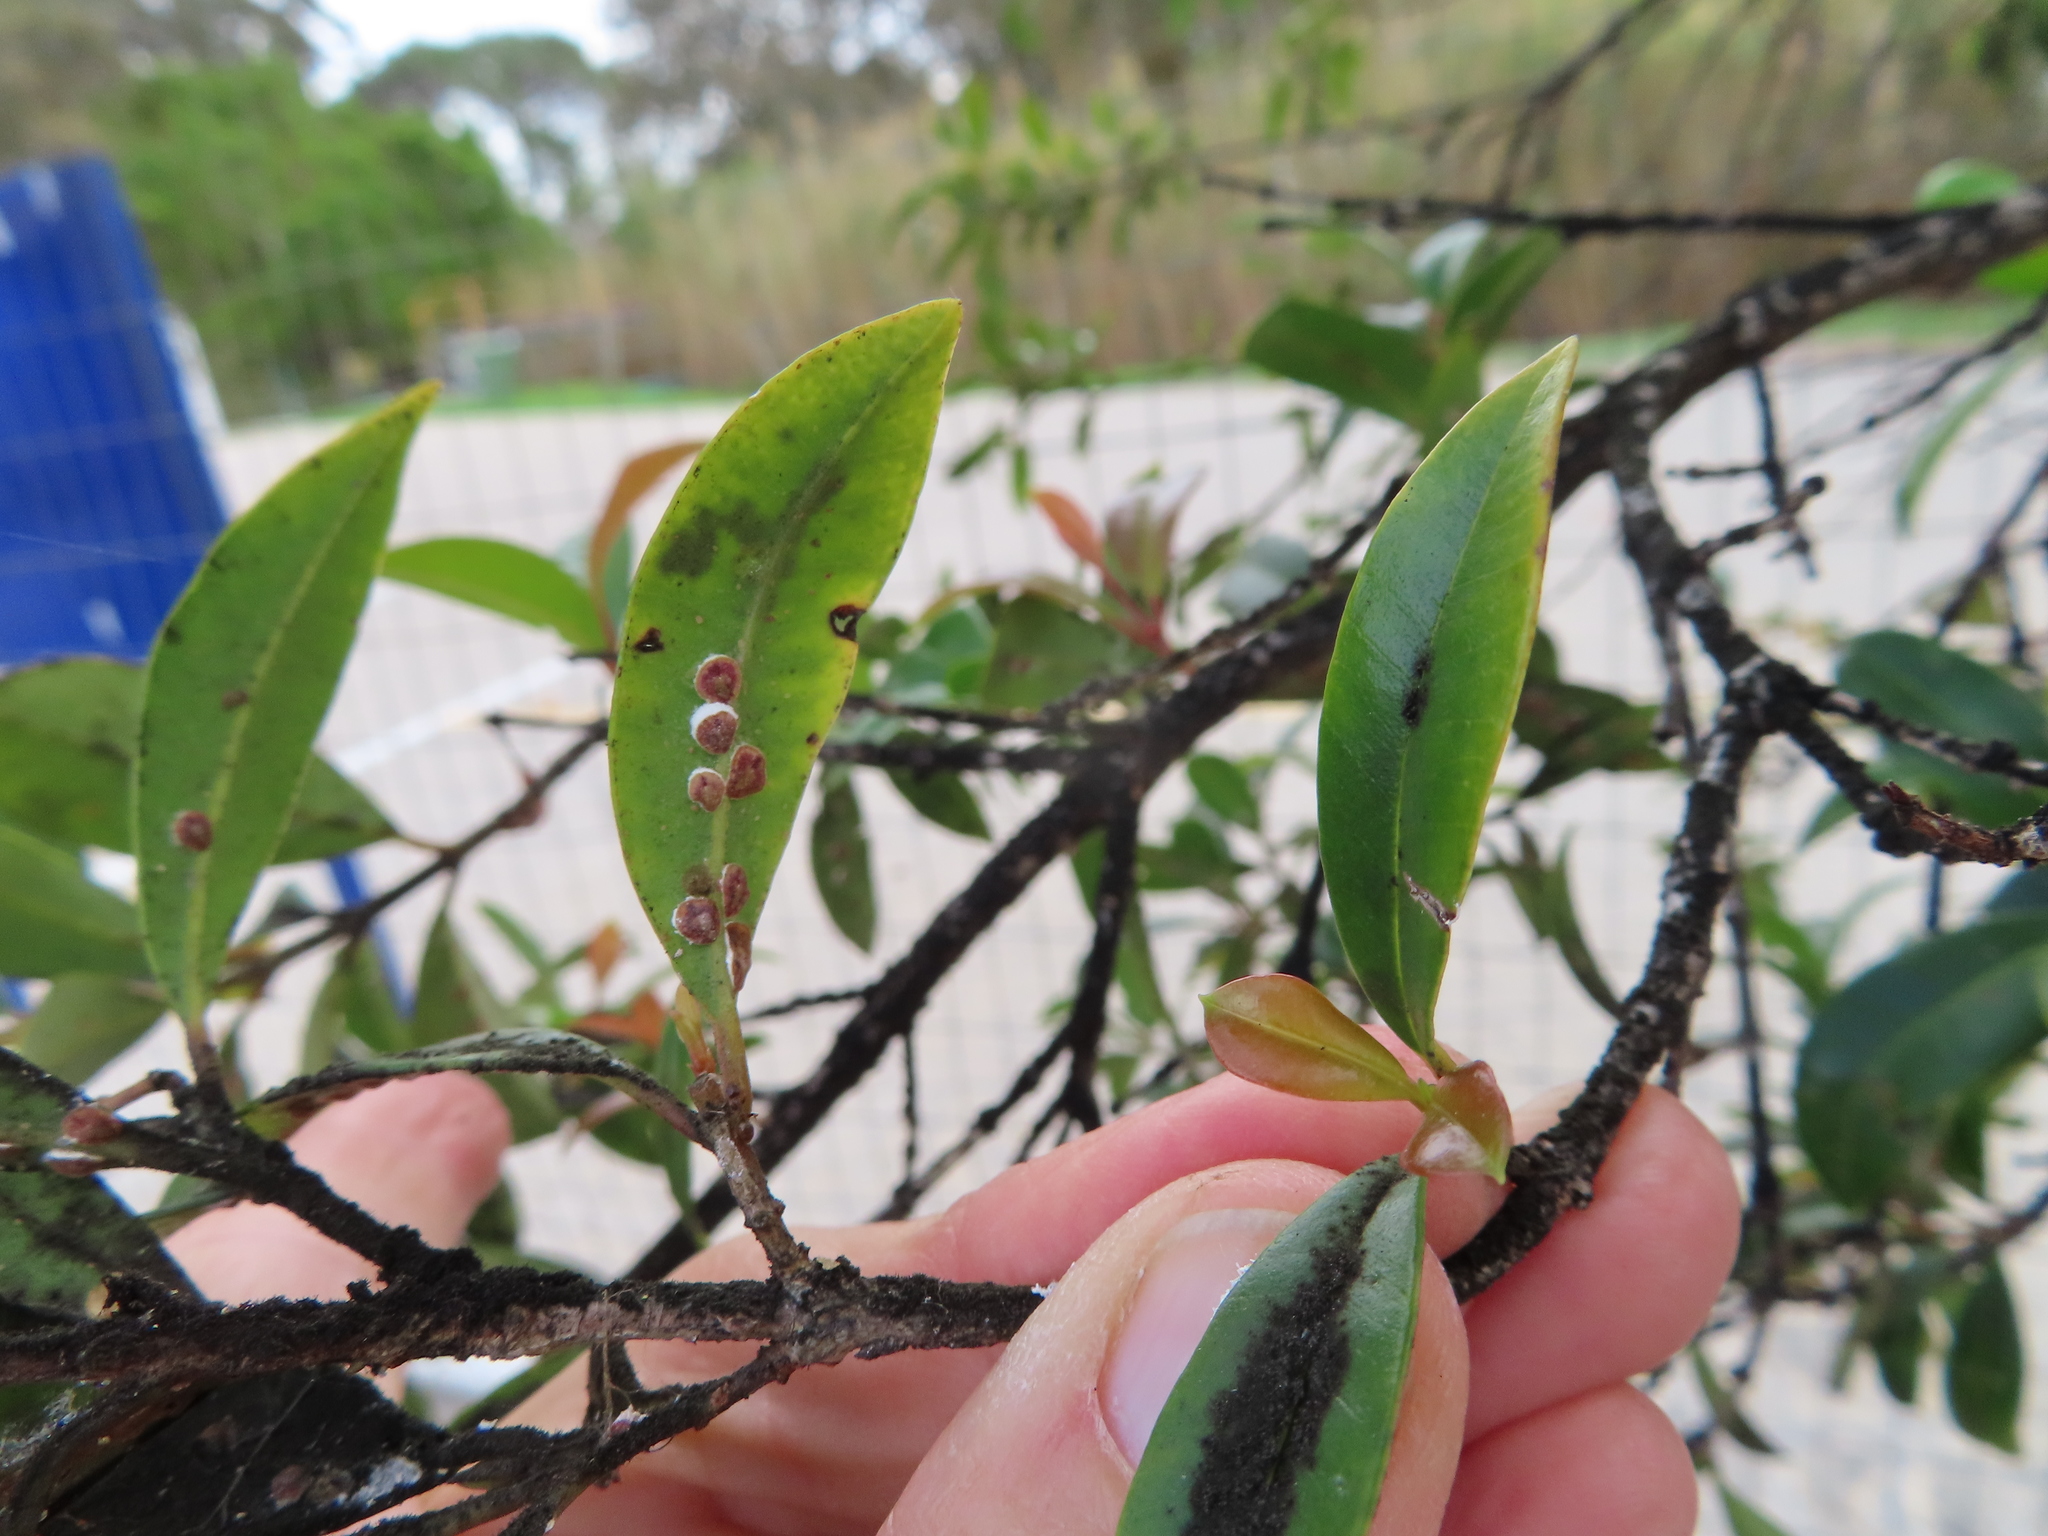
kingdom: Animalia
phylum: Arthropoda
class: Insecta
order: Hemiptera
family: Coccidae
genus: Protopulvinaria
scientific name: Protopulvinaria pyriformis
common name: Pyriform scale
